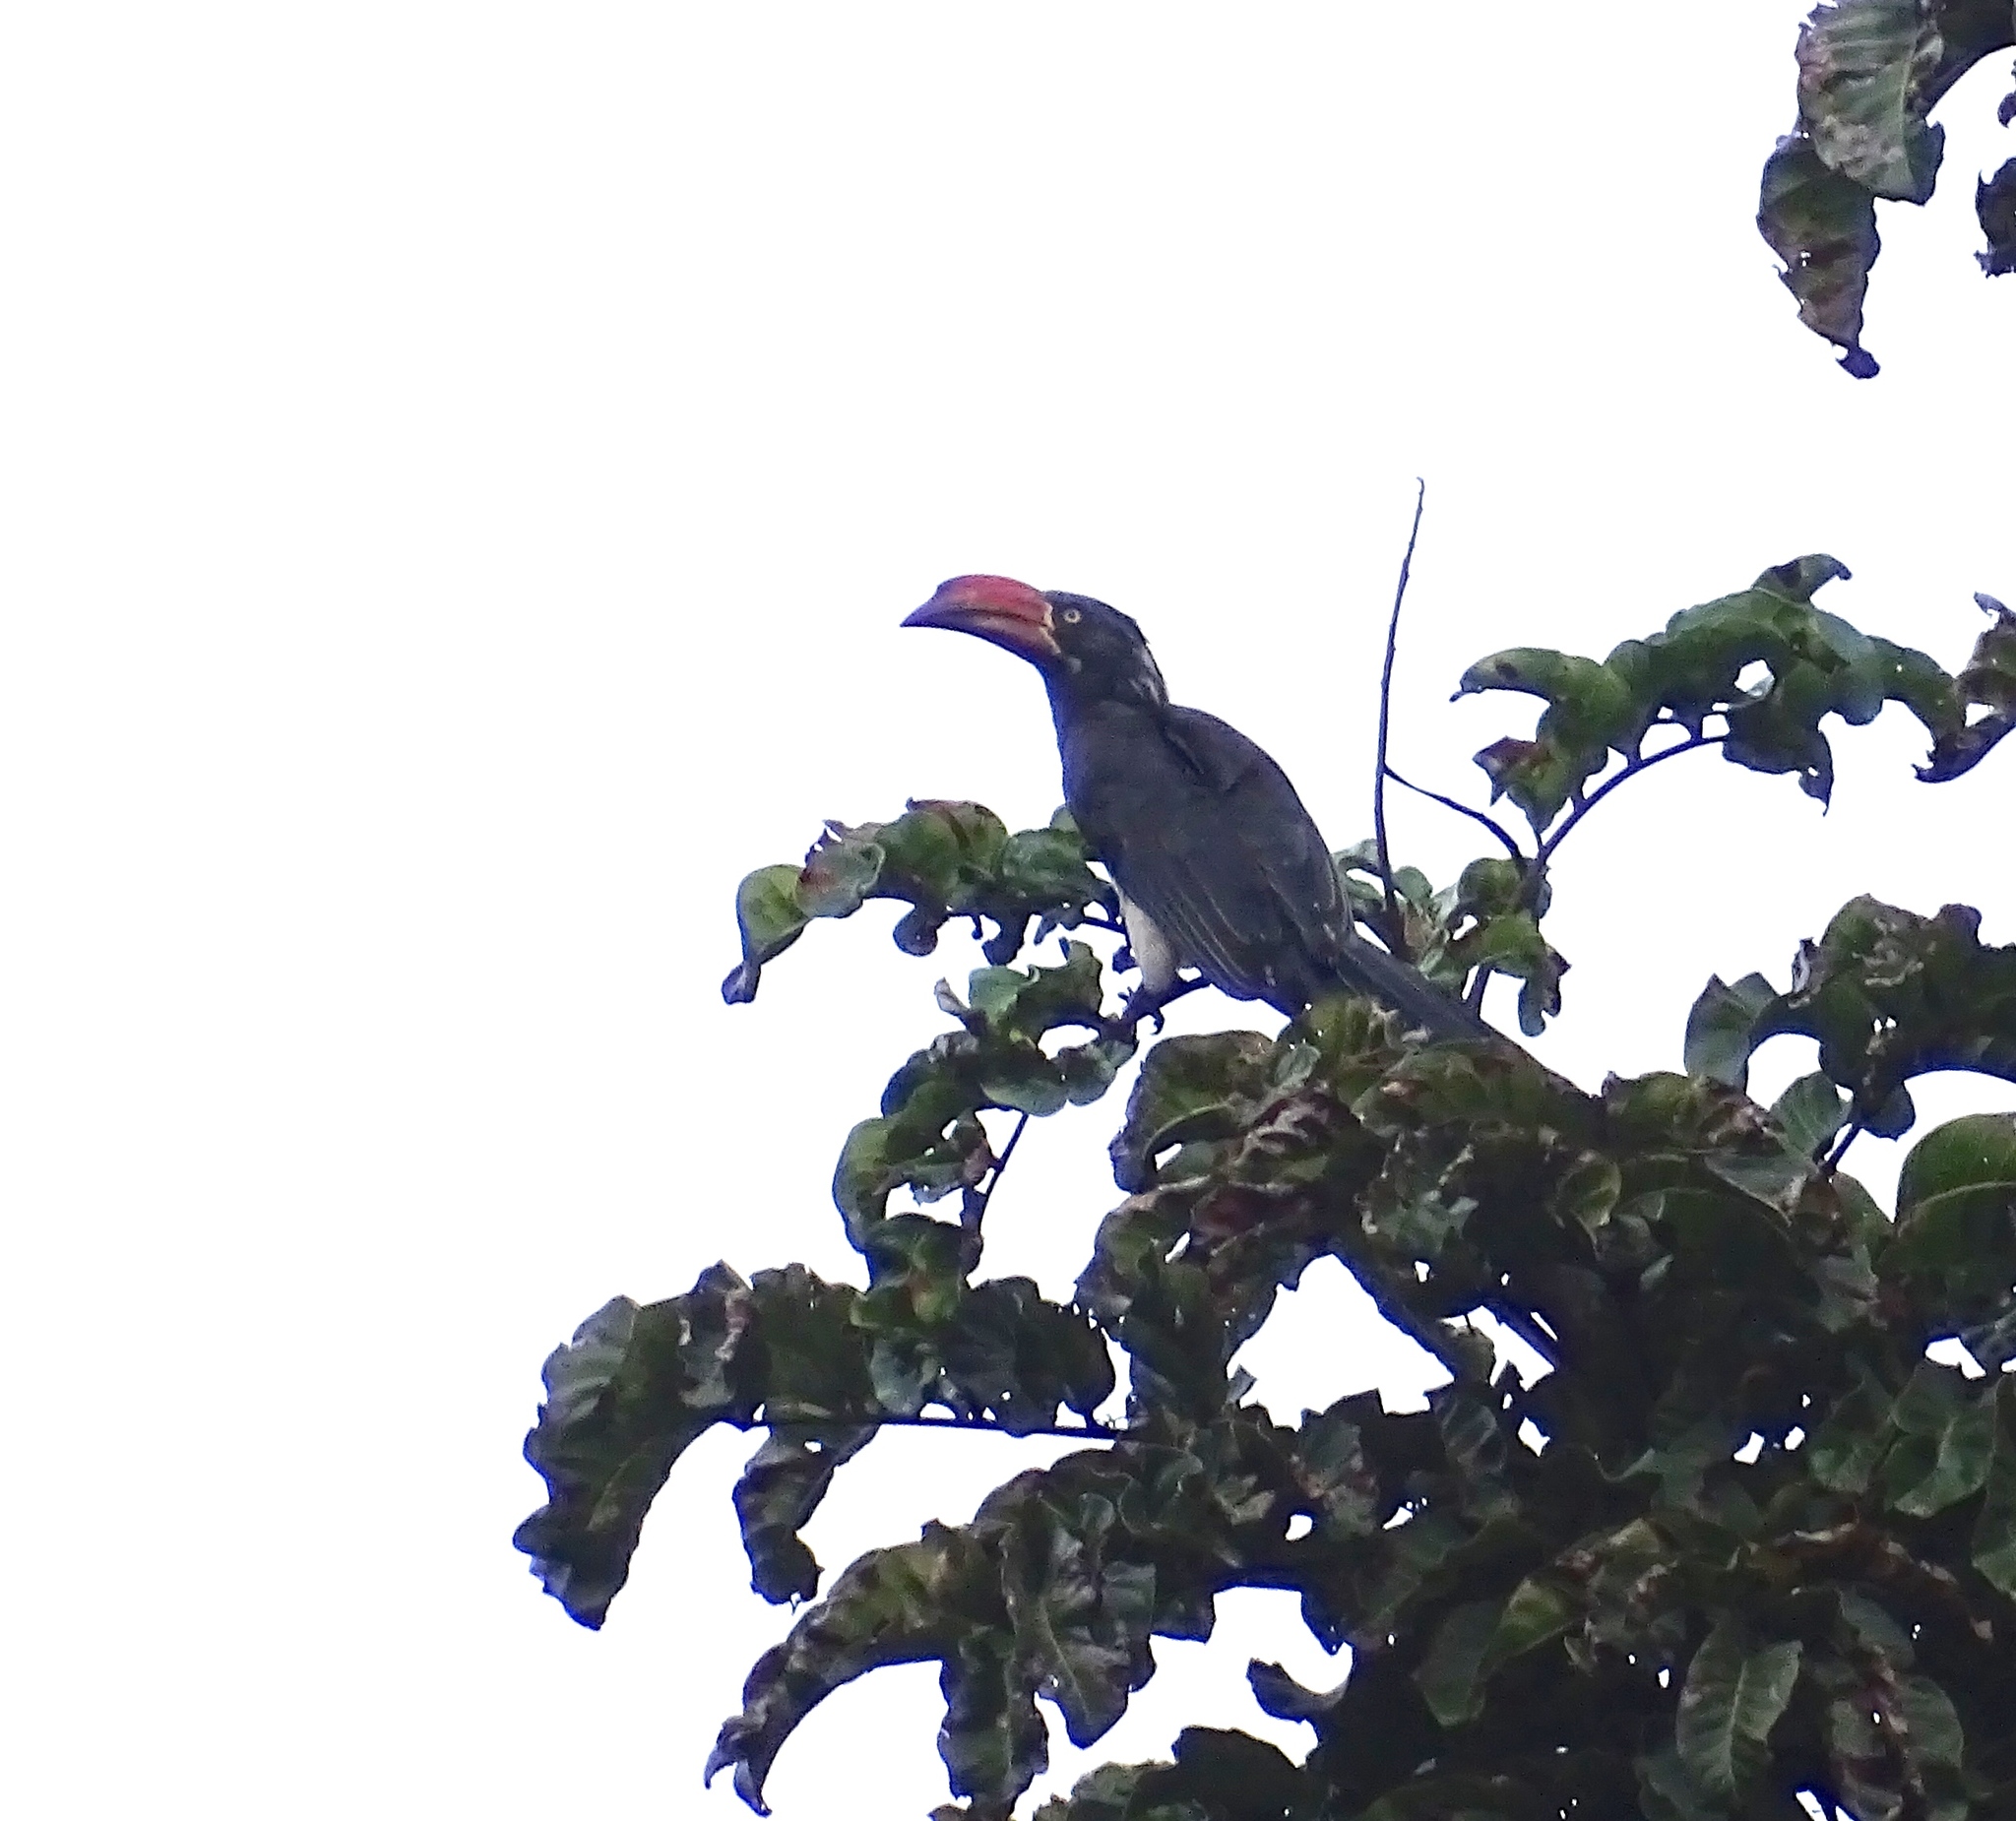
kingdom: Animalia
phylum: Chordata
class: Aves
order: Bucerotiformes
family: Bucerotidae
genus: Lophoceros
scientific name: Lophoceros alboterminatus
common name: Crowned hornbill
